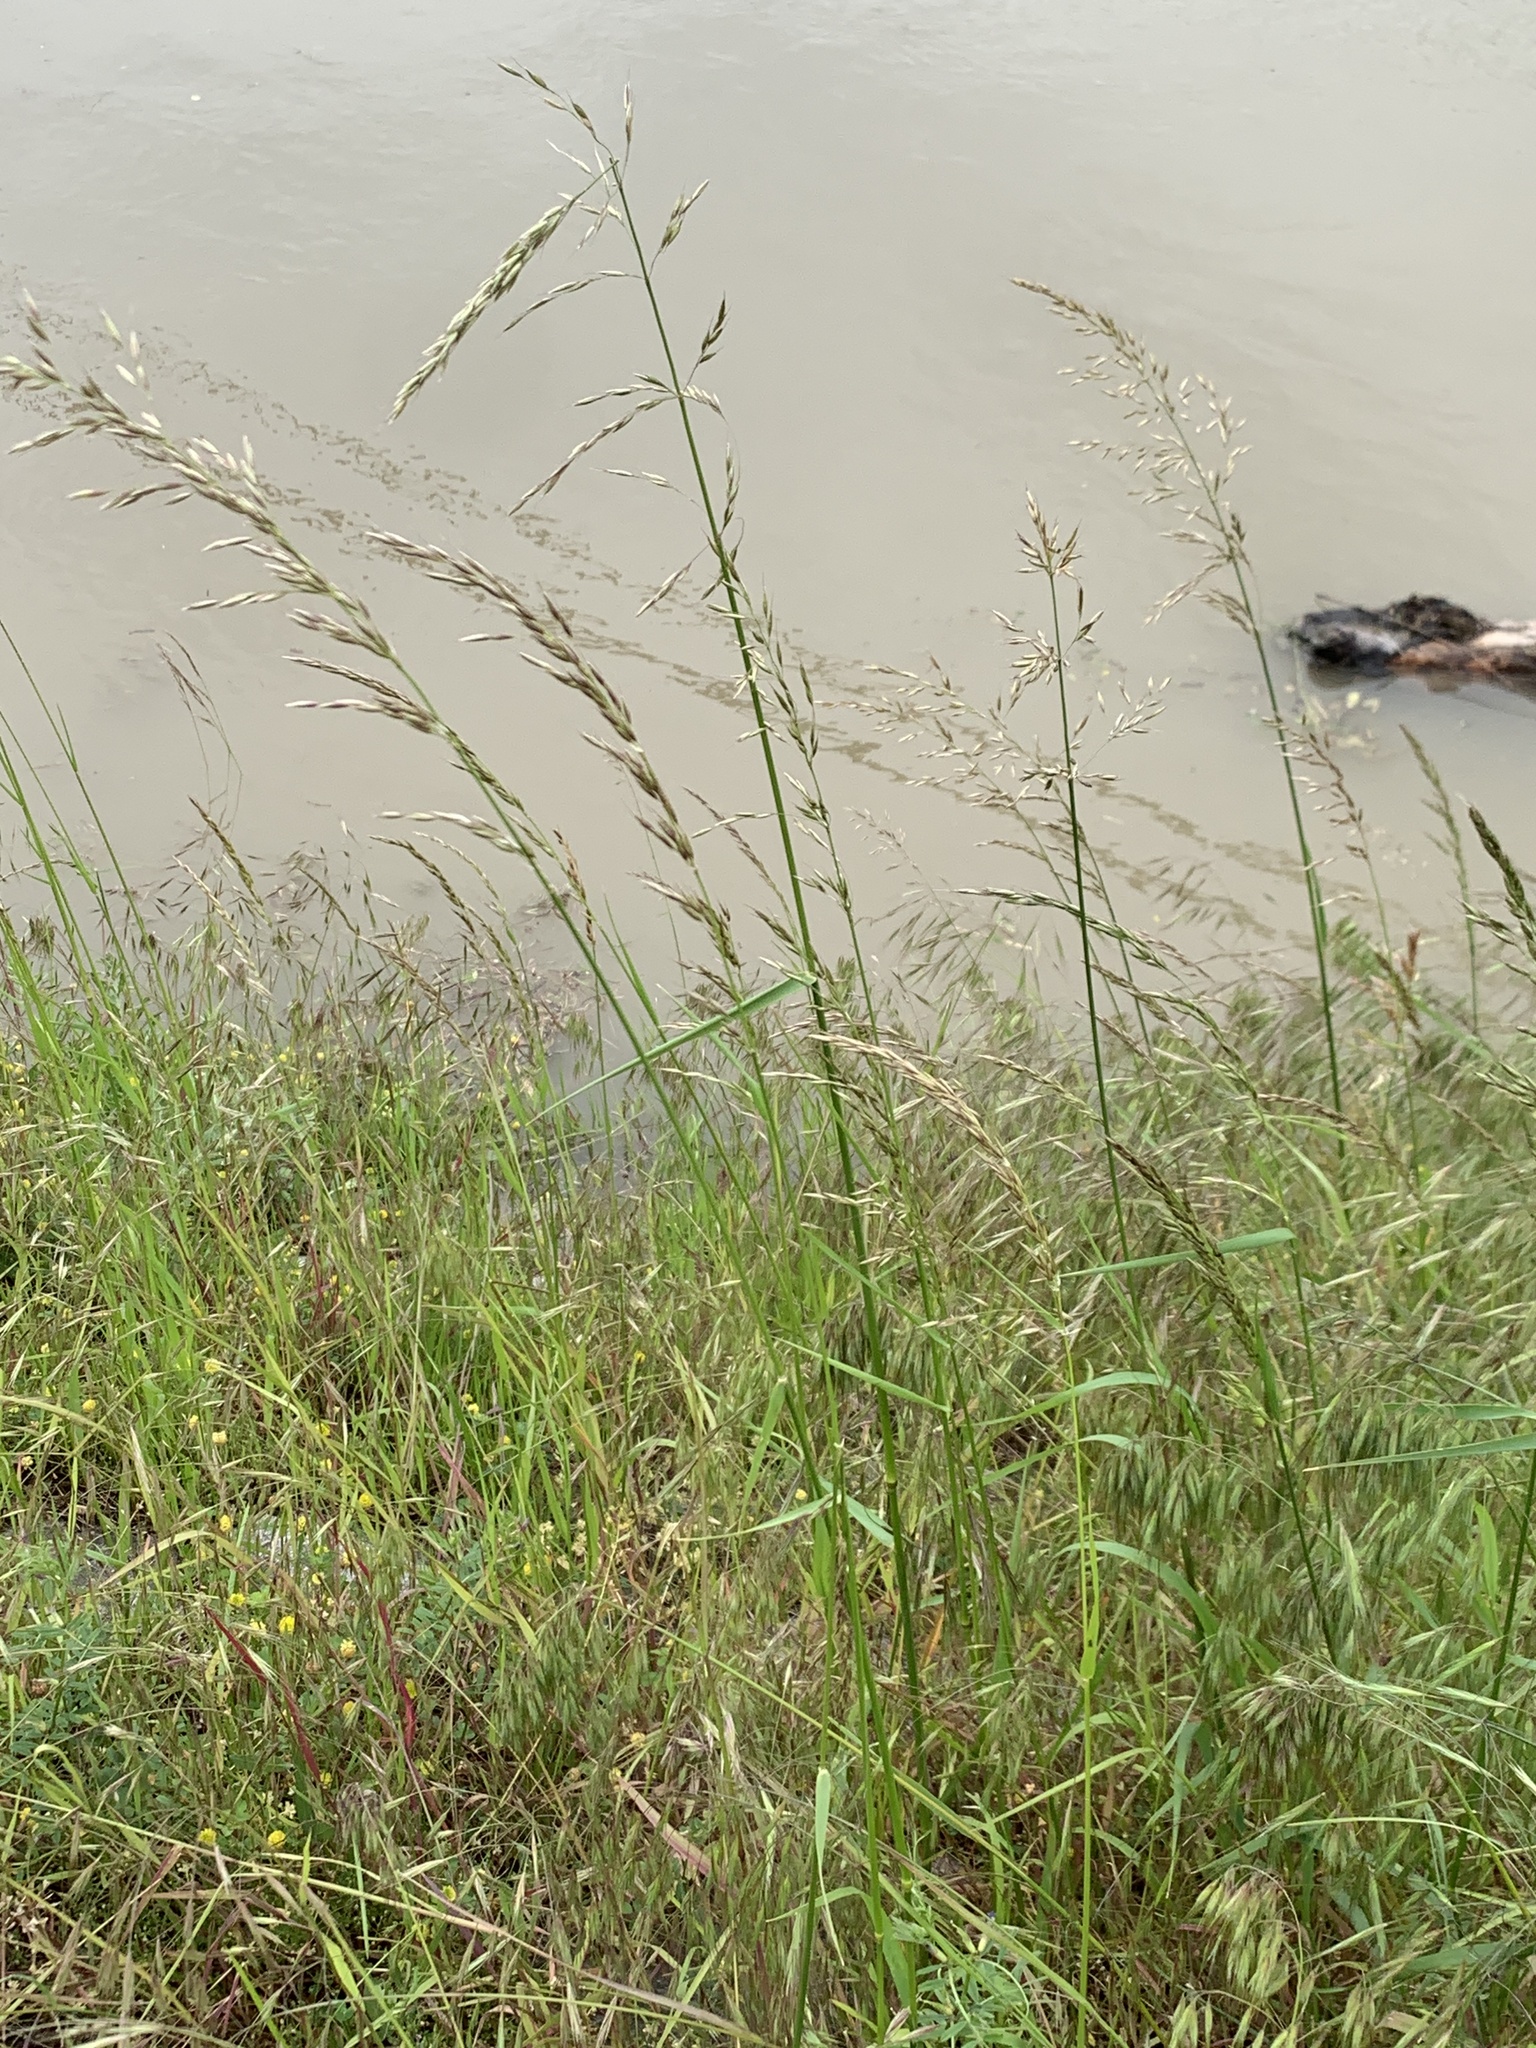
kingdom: Plantae
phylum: Tracheophyta
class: Liliopsida
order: Poales
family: Poaceae
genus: Arrhenatherum
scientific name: Arrhenatherum elatius
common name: Tall oatgrass
